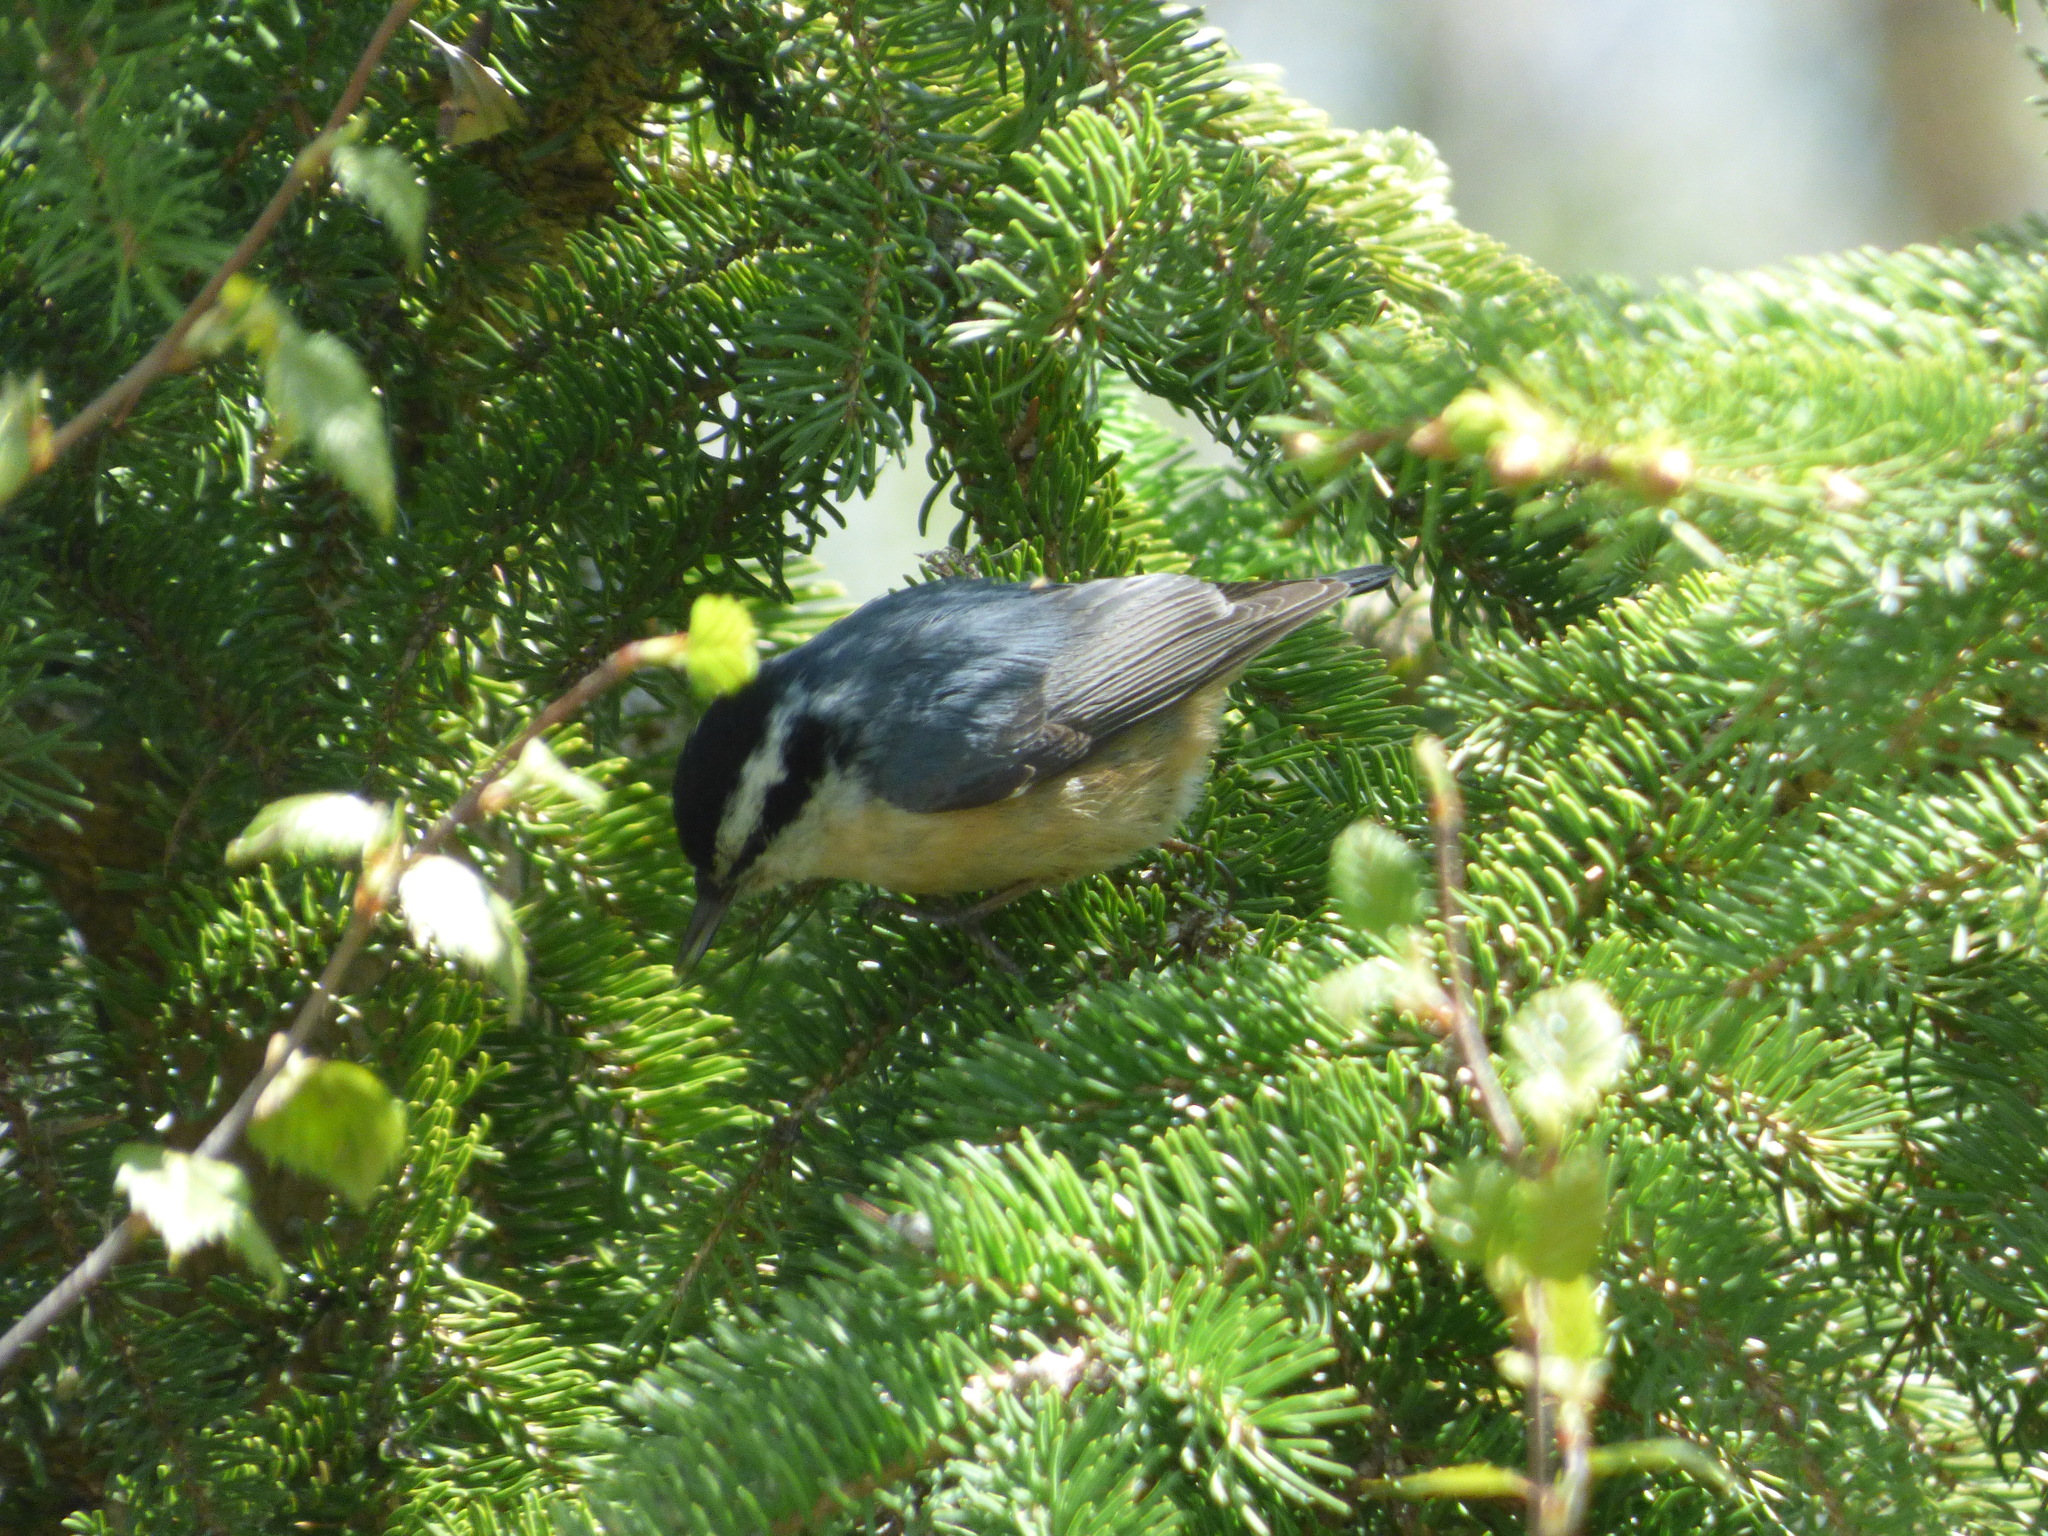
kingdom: Animalia
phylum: Chordata
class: Aves
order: Passeriformes
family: Sittidae
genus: Sitta
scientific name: Sitta canadensis
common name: Red-breasted nuthatch
